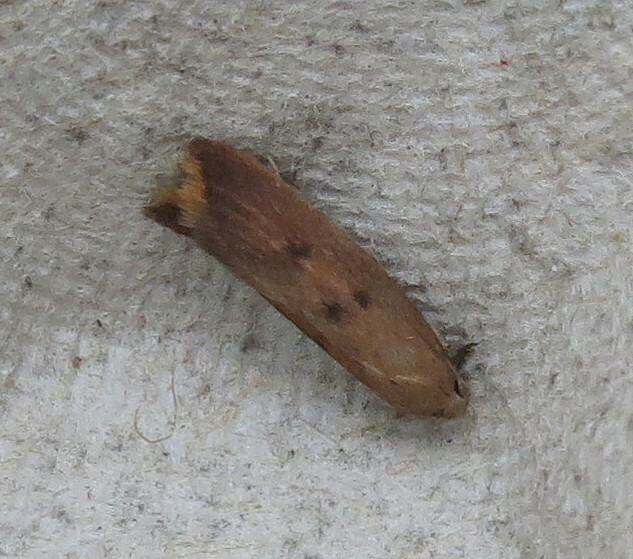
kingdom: Animalia
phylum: Arthropoda
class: Insecta
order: Lepidoptera
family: Oecophoridae
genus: Tachystola
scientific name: Tachystola acroxantha
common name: Ruddy streak
